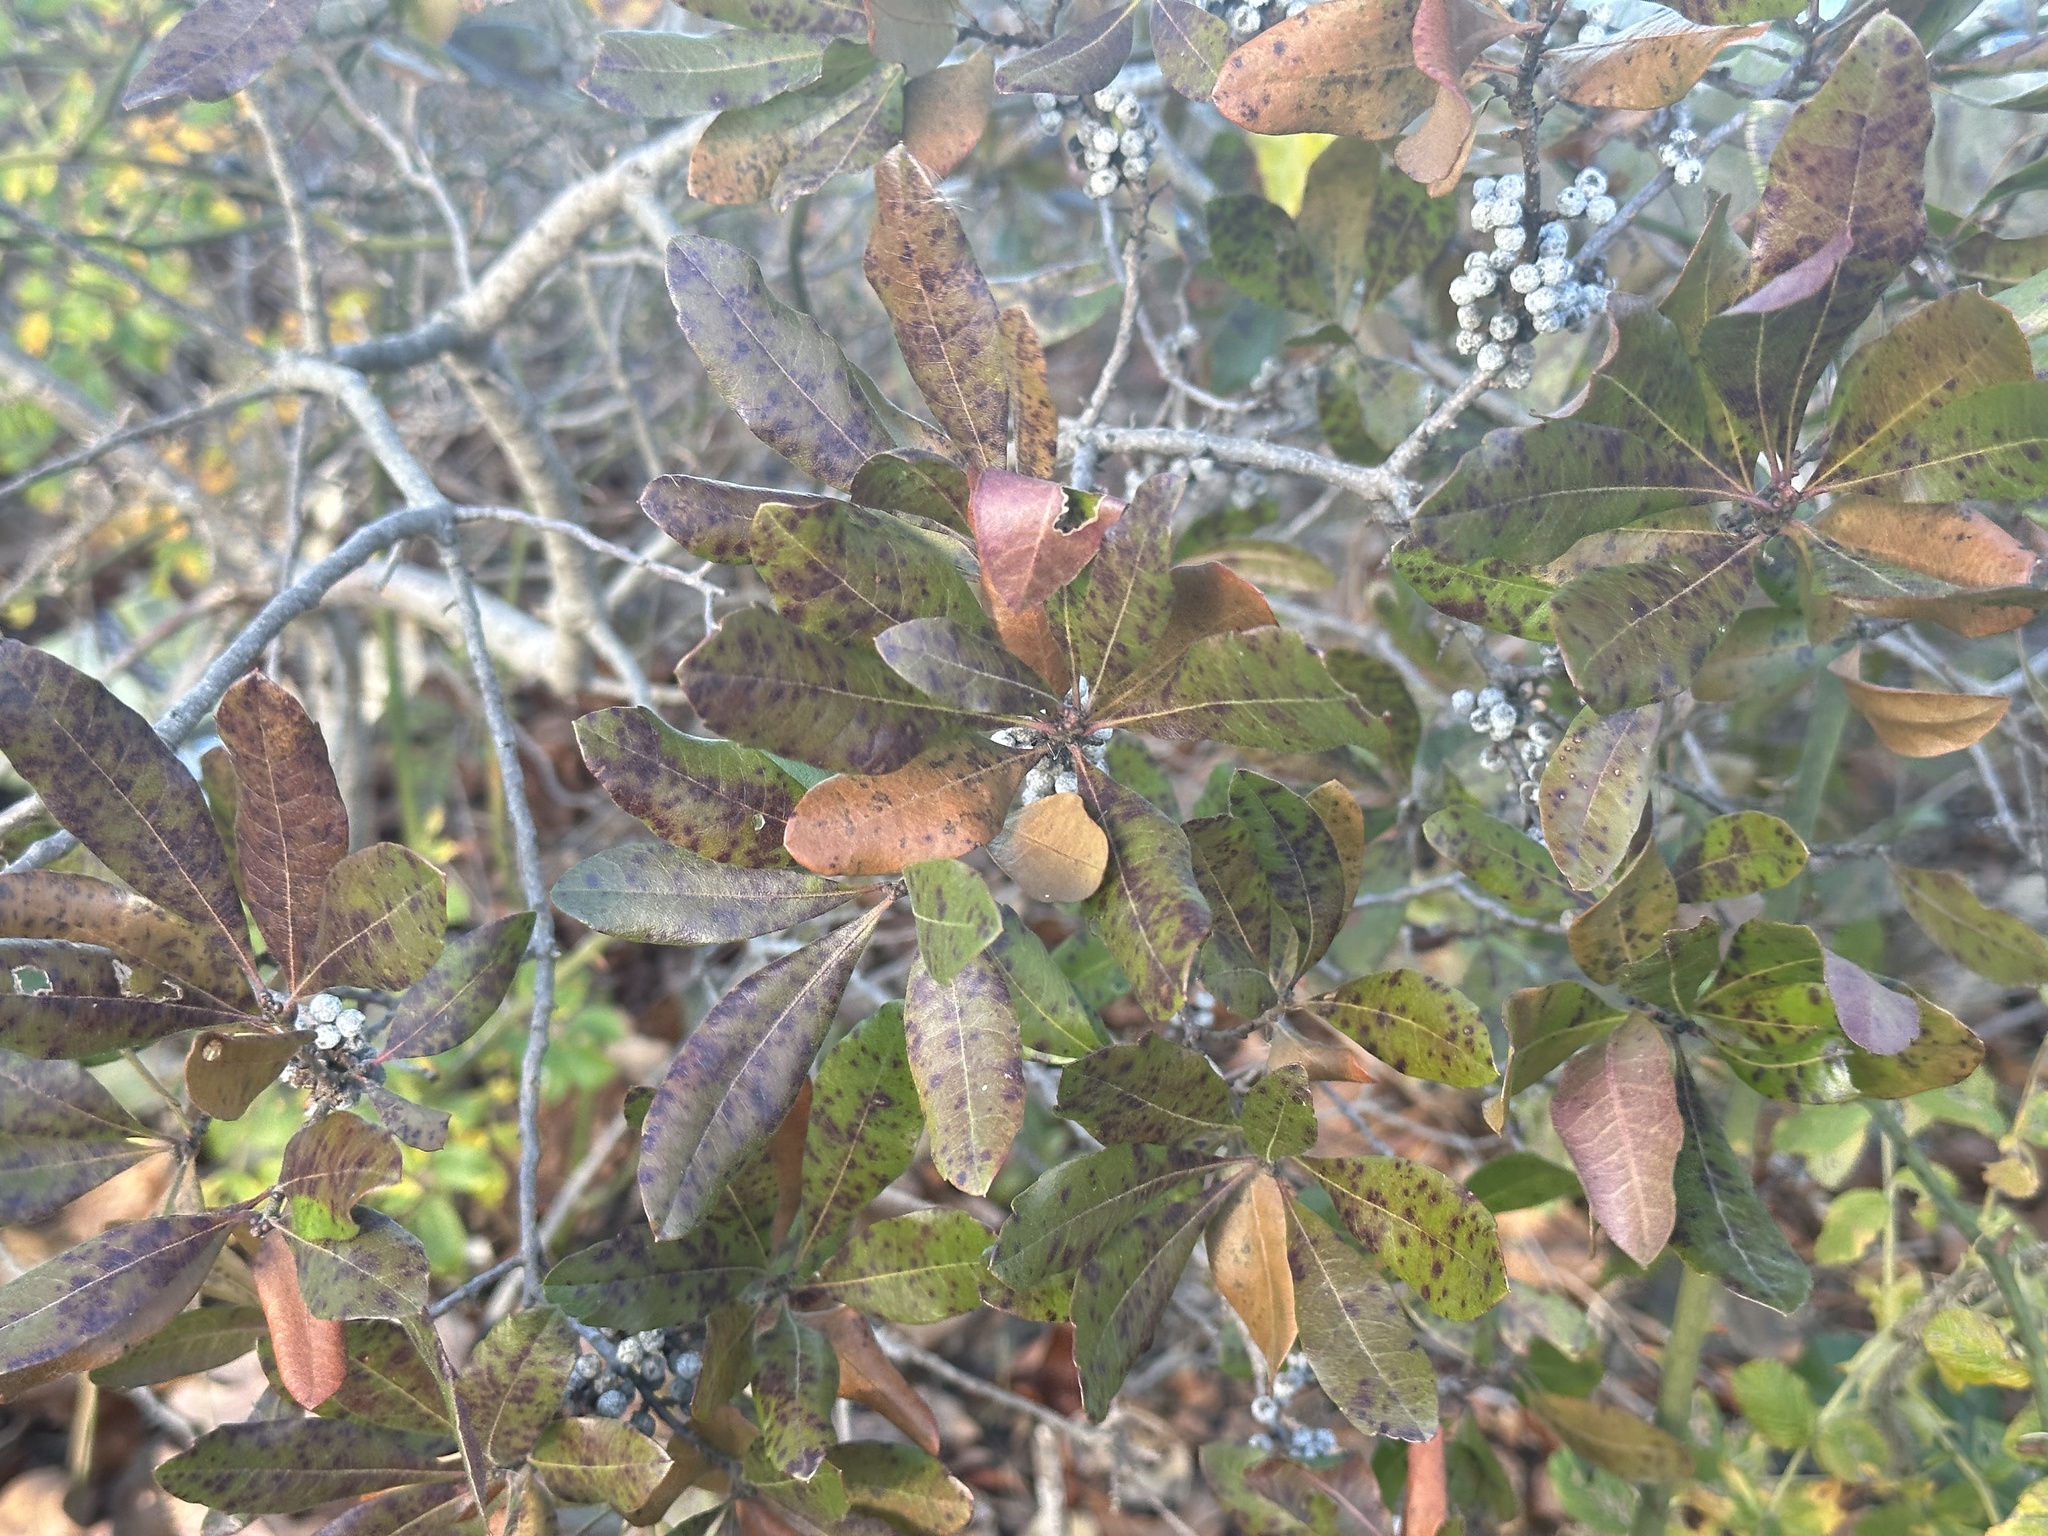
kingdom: Plantae
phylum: Tracheophyta
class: Magnoliopsida
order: Fagales
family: Myricaceae
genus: Morella
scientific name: Morella pensylvanica
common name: Northern bayberry
